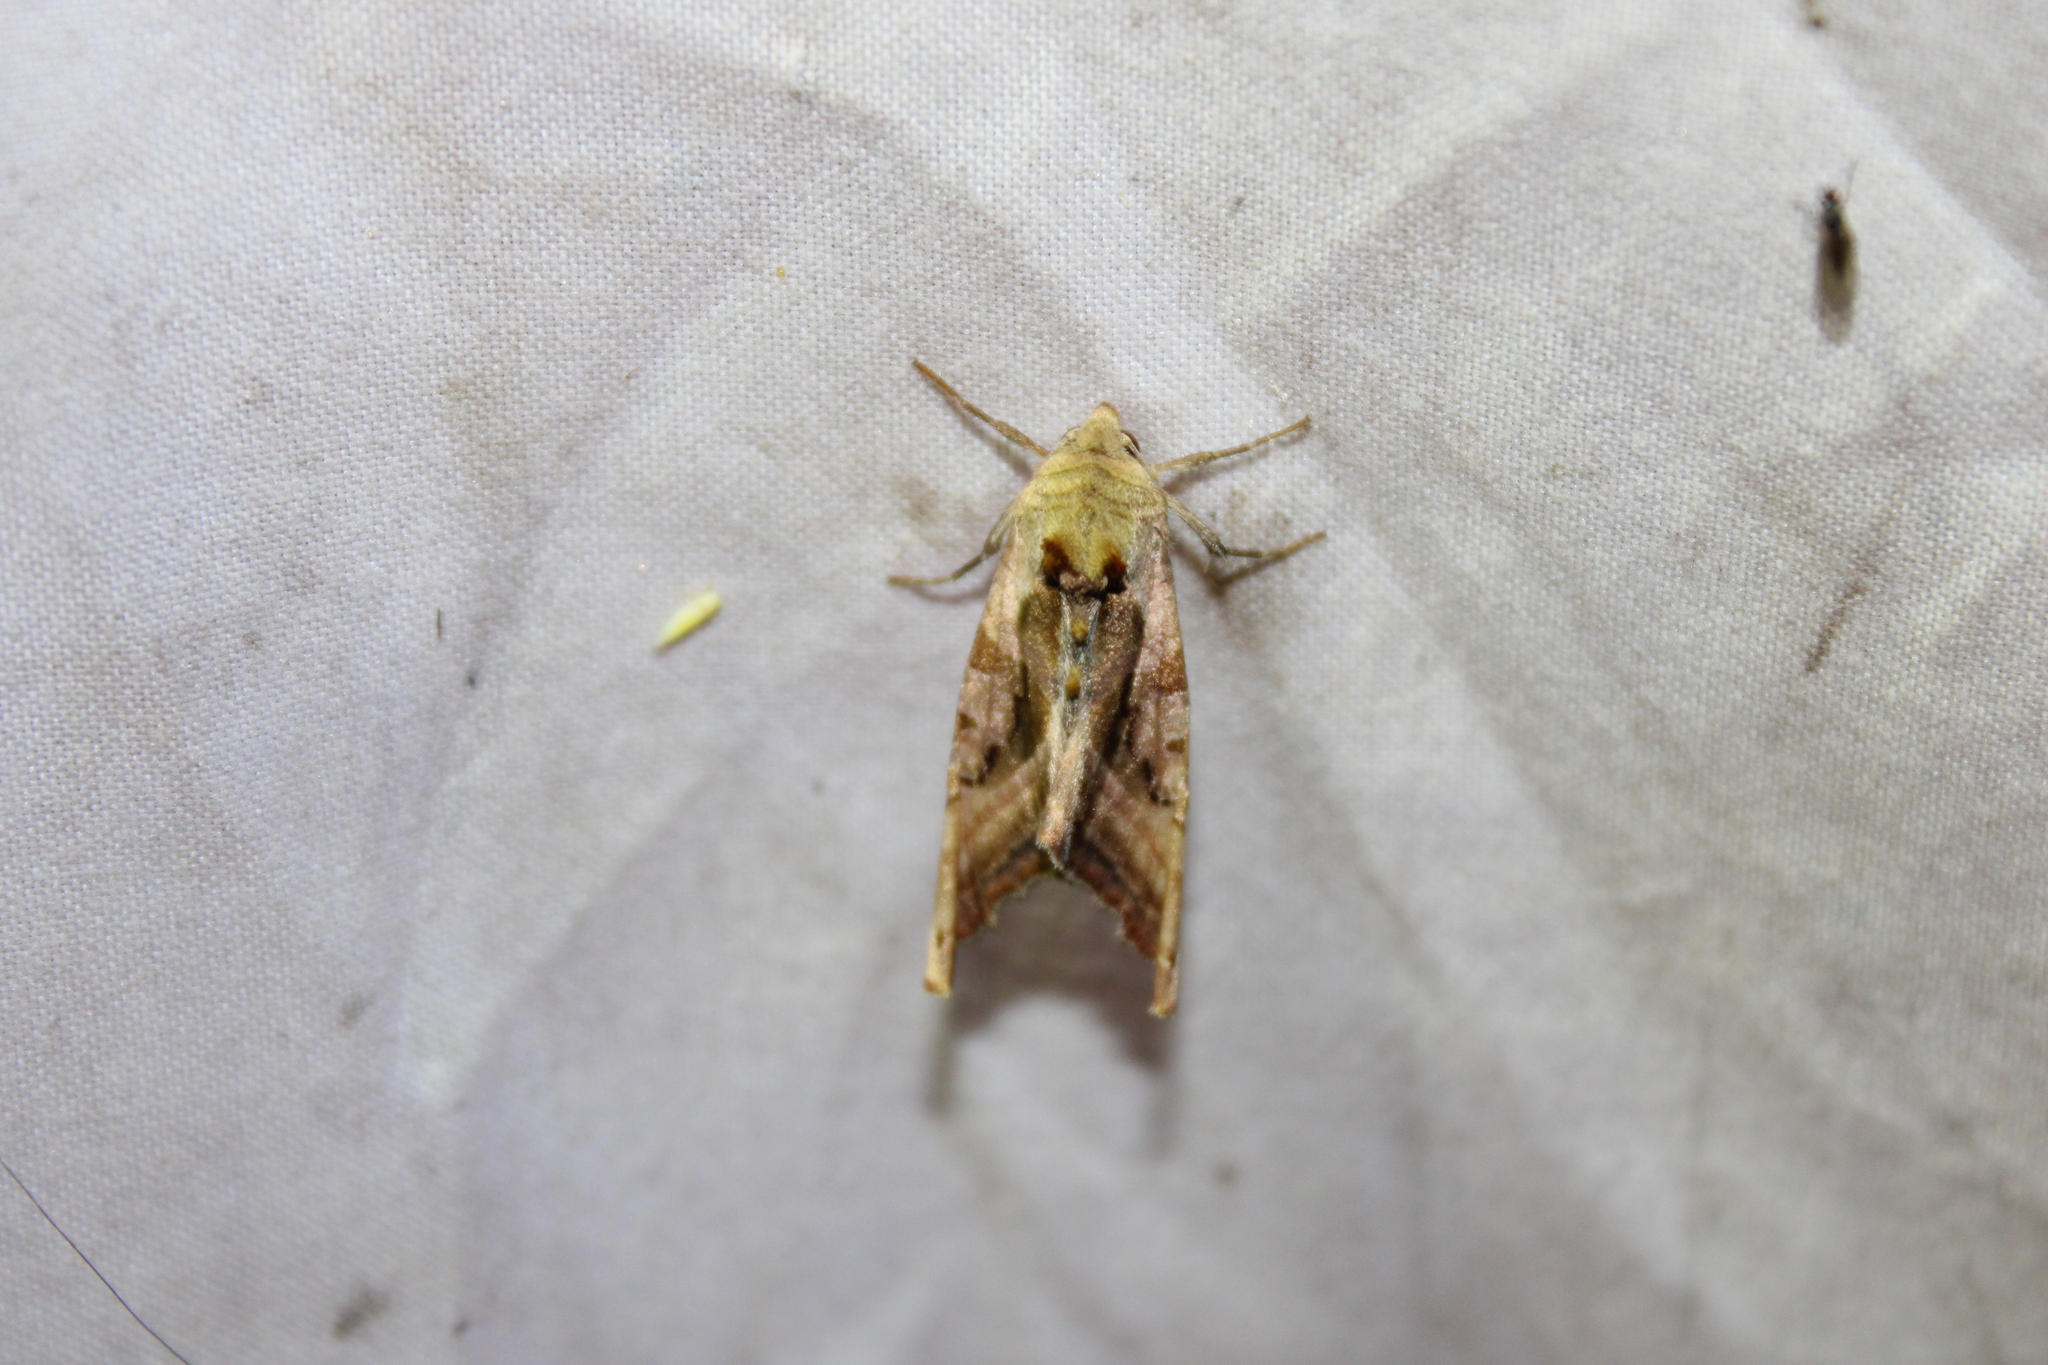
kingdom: Animalia
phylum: Arthropoda
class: Insecta
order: Lepidoptera
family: Noctuidae
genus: Phlogophora
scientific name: Phlogophora iris
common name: Olive angle shades
